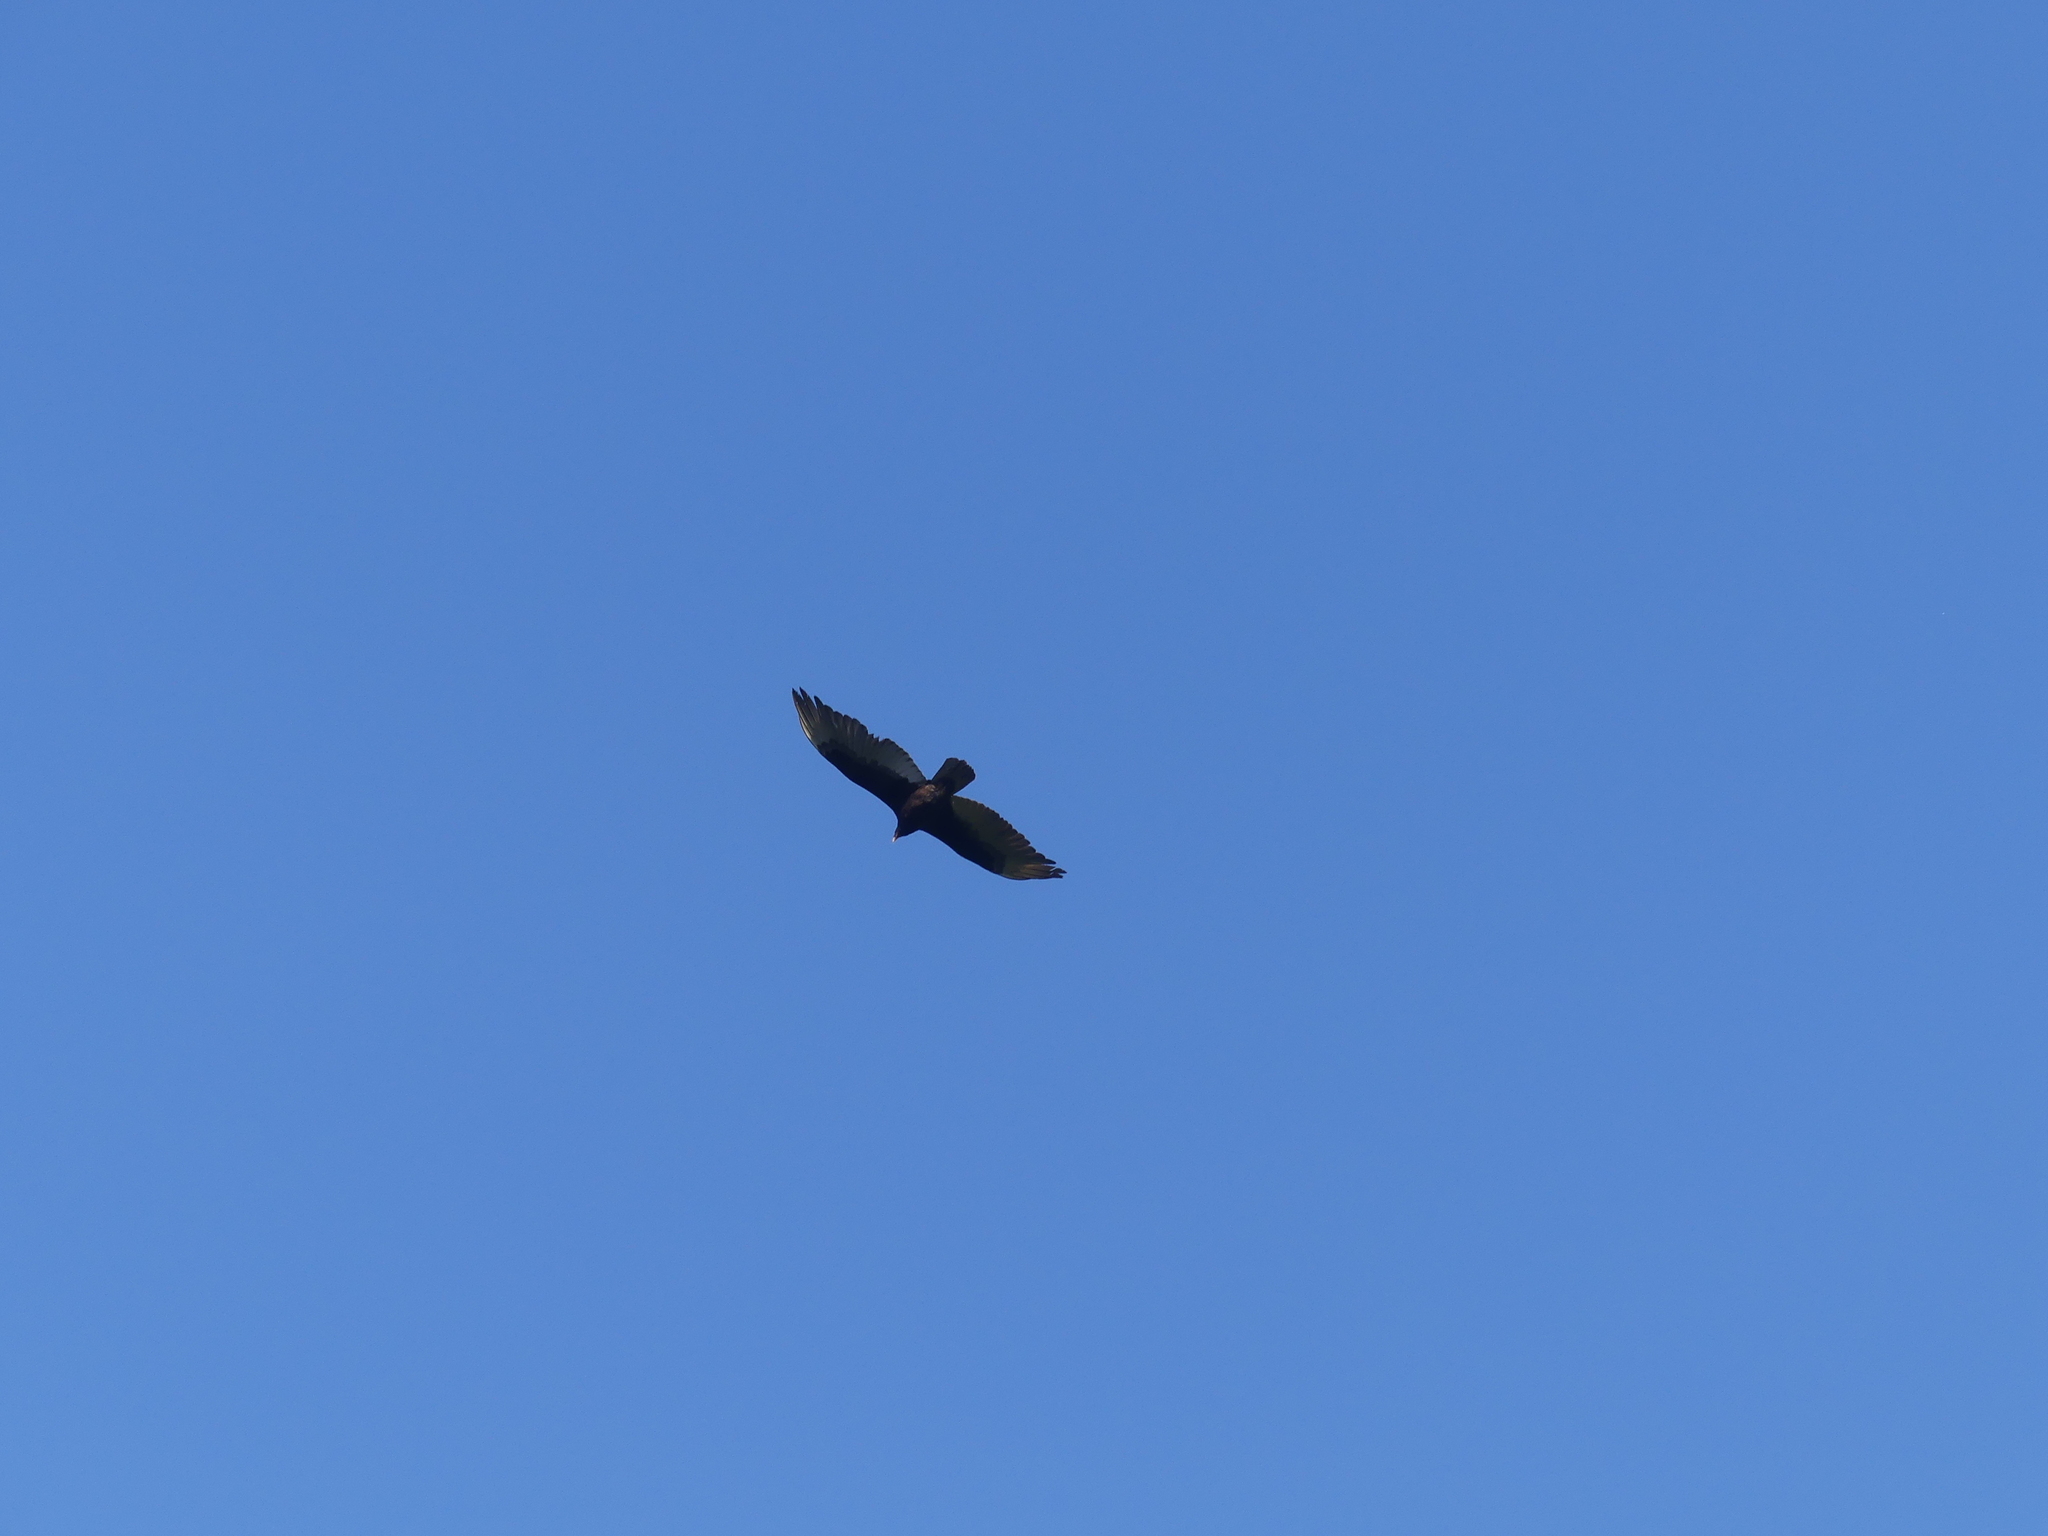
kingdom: Animalia
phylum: Chordata
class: Aves
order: Accipitriformes
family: Cathartidae
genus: Cathartes
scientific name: Cathartes aura
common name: Turkey vulture
